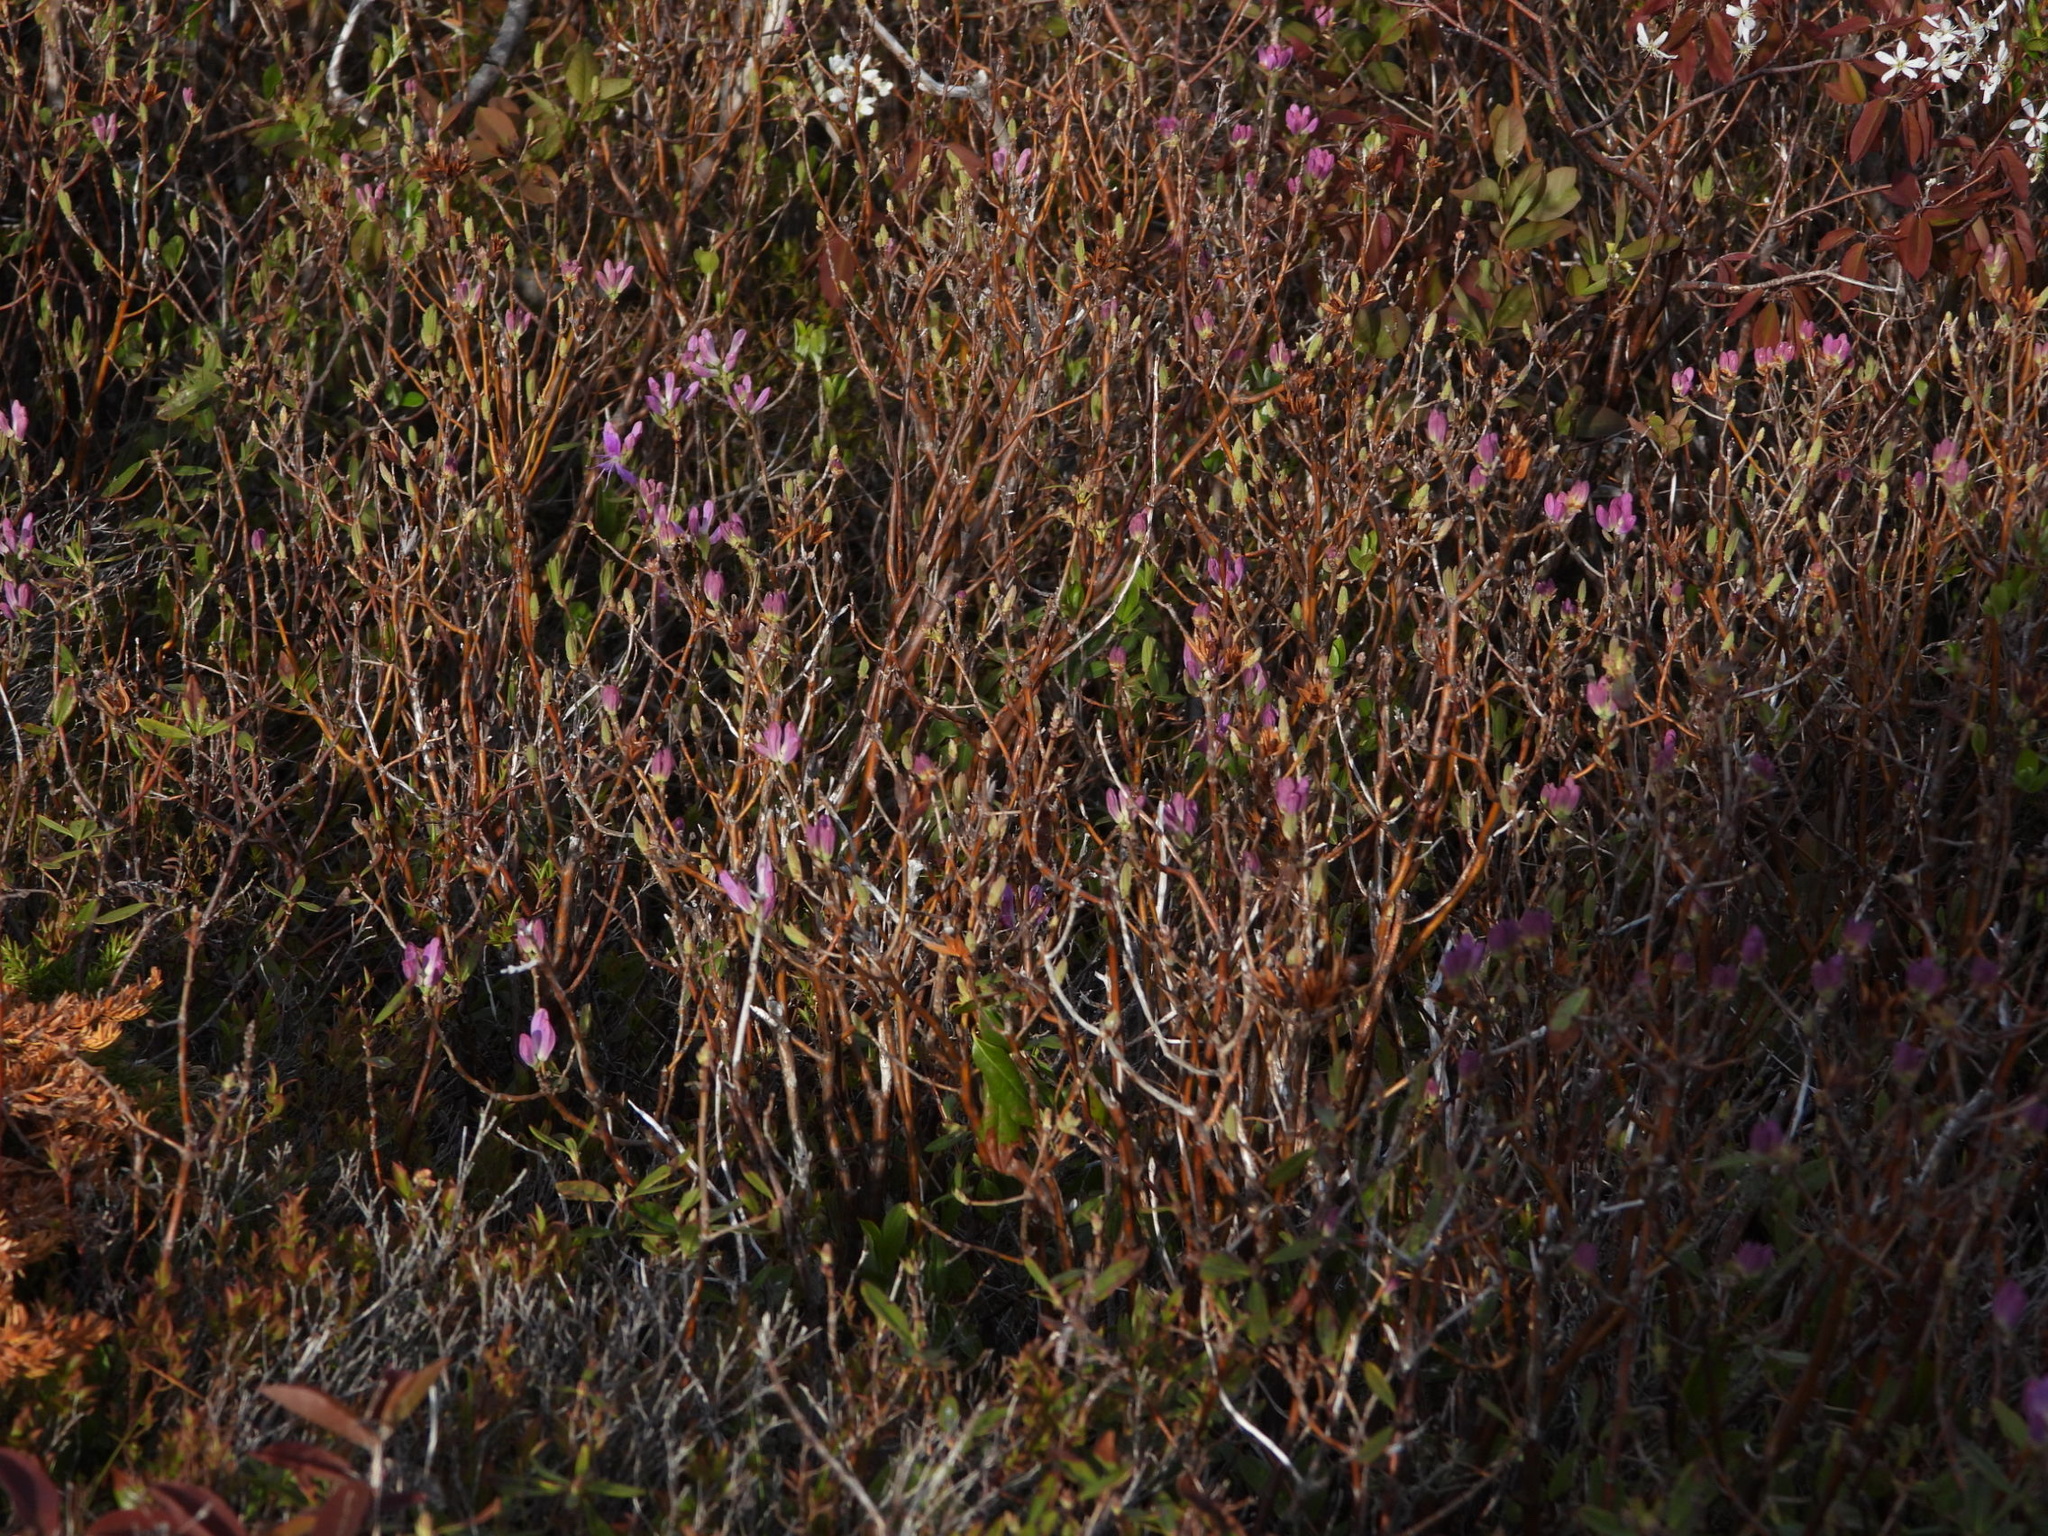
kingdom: Plantae
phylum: Tracheophyta
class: Magnoliopsida
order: Ericales
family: Ericaceae
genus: Rhododendron
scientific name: Rhododendron canadense
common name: Rhodora
